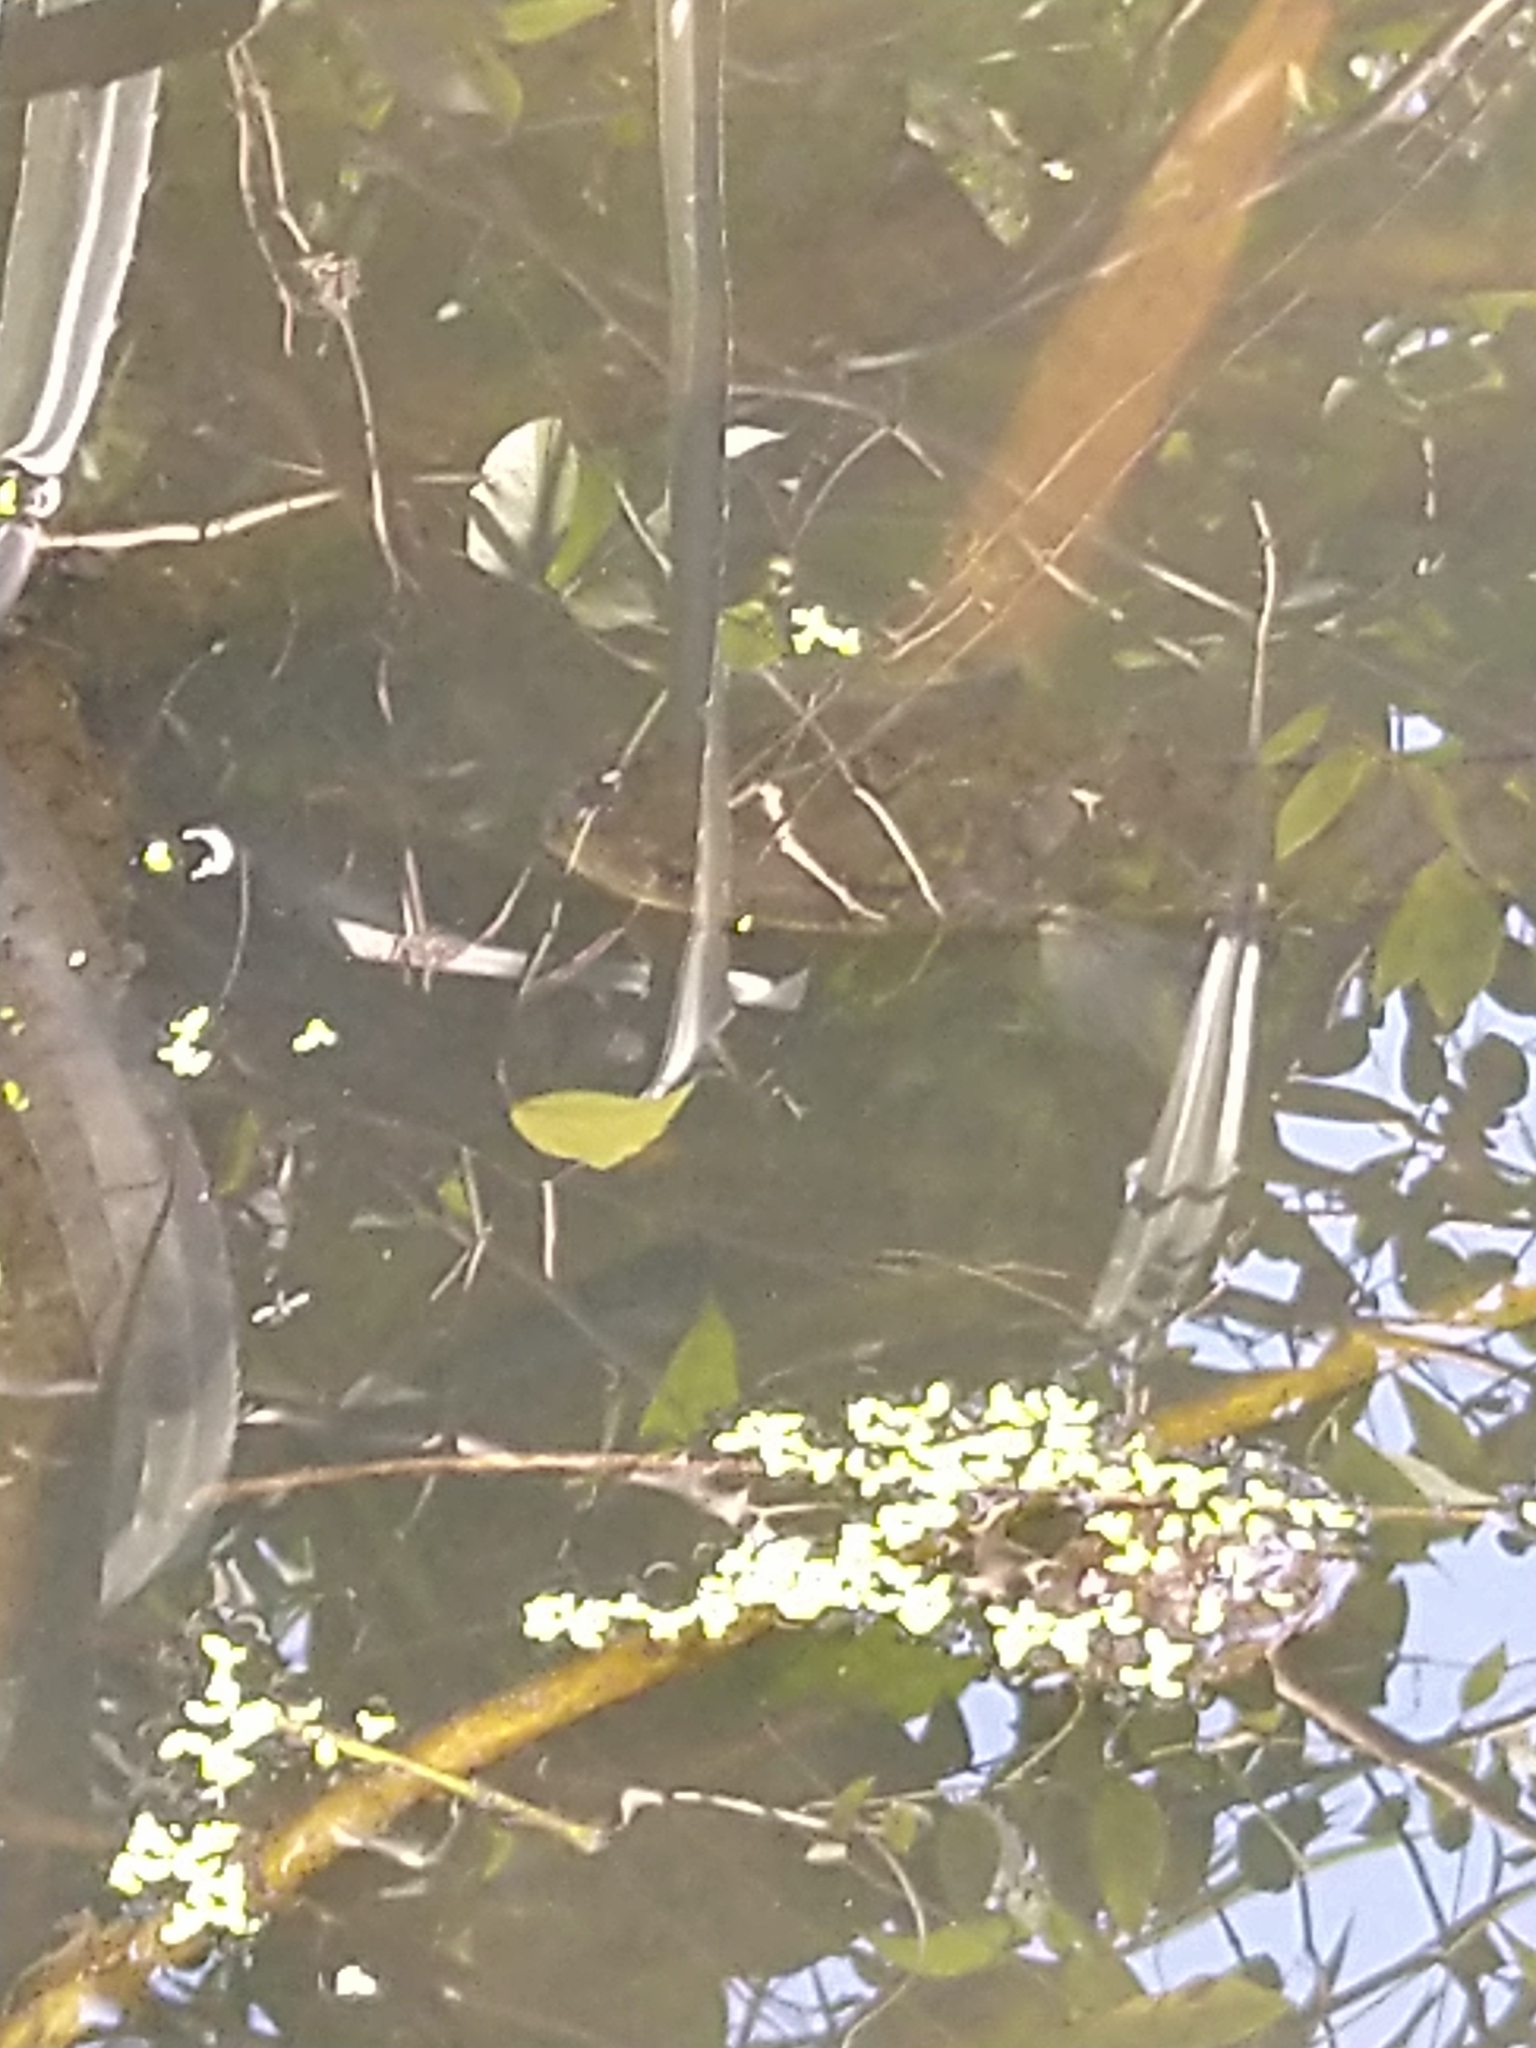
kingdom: Animalia
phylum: Chordata
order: Perciformes
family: Channidae
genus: Channa
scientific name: Channa striata
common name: Striped snakehead
